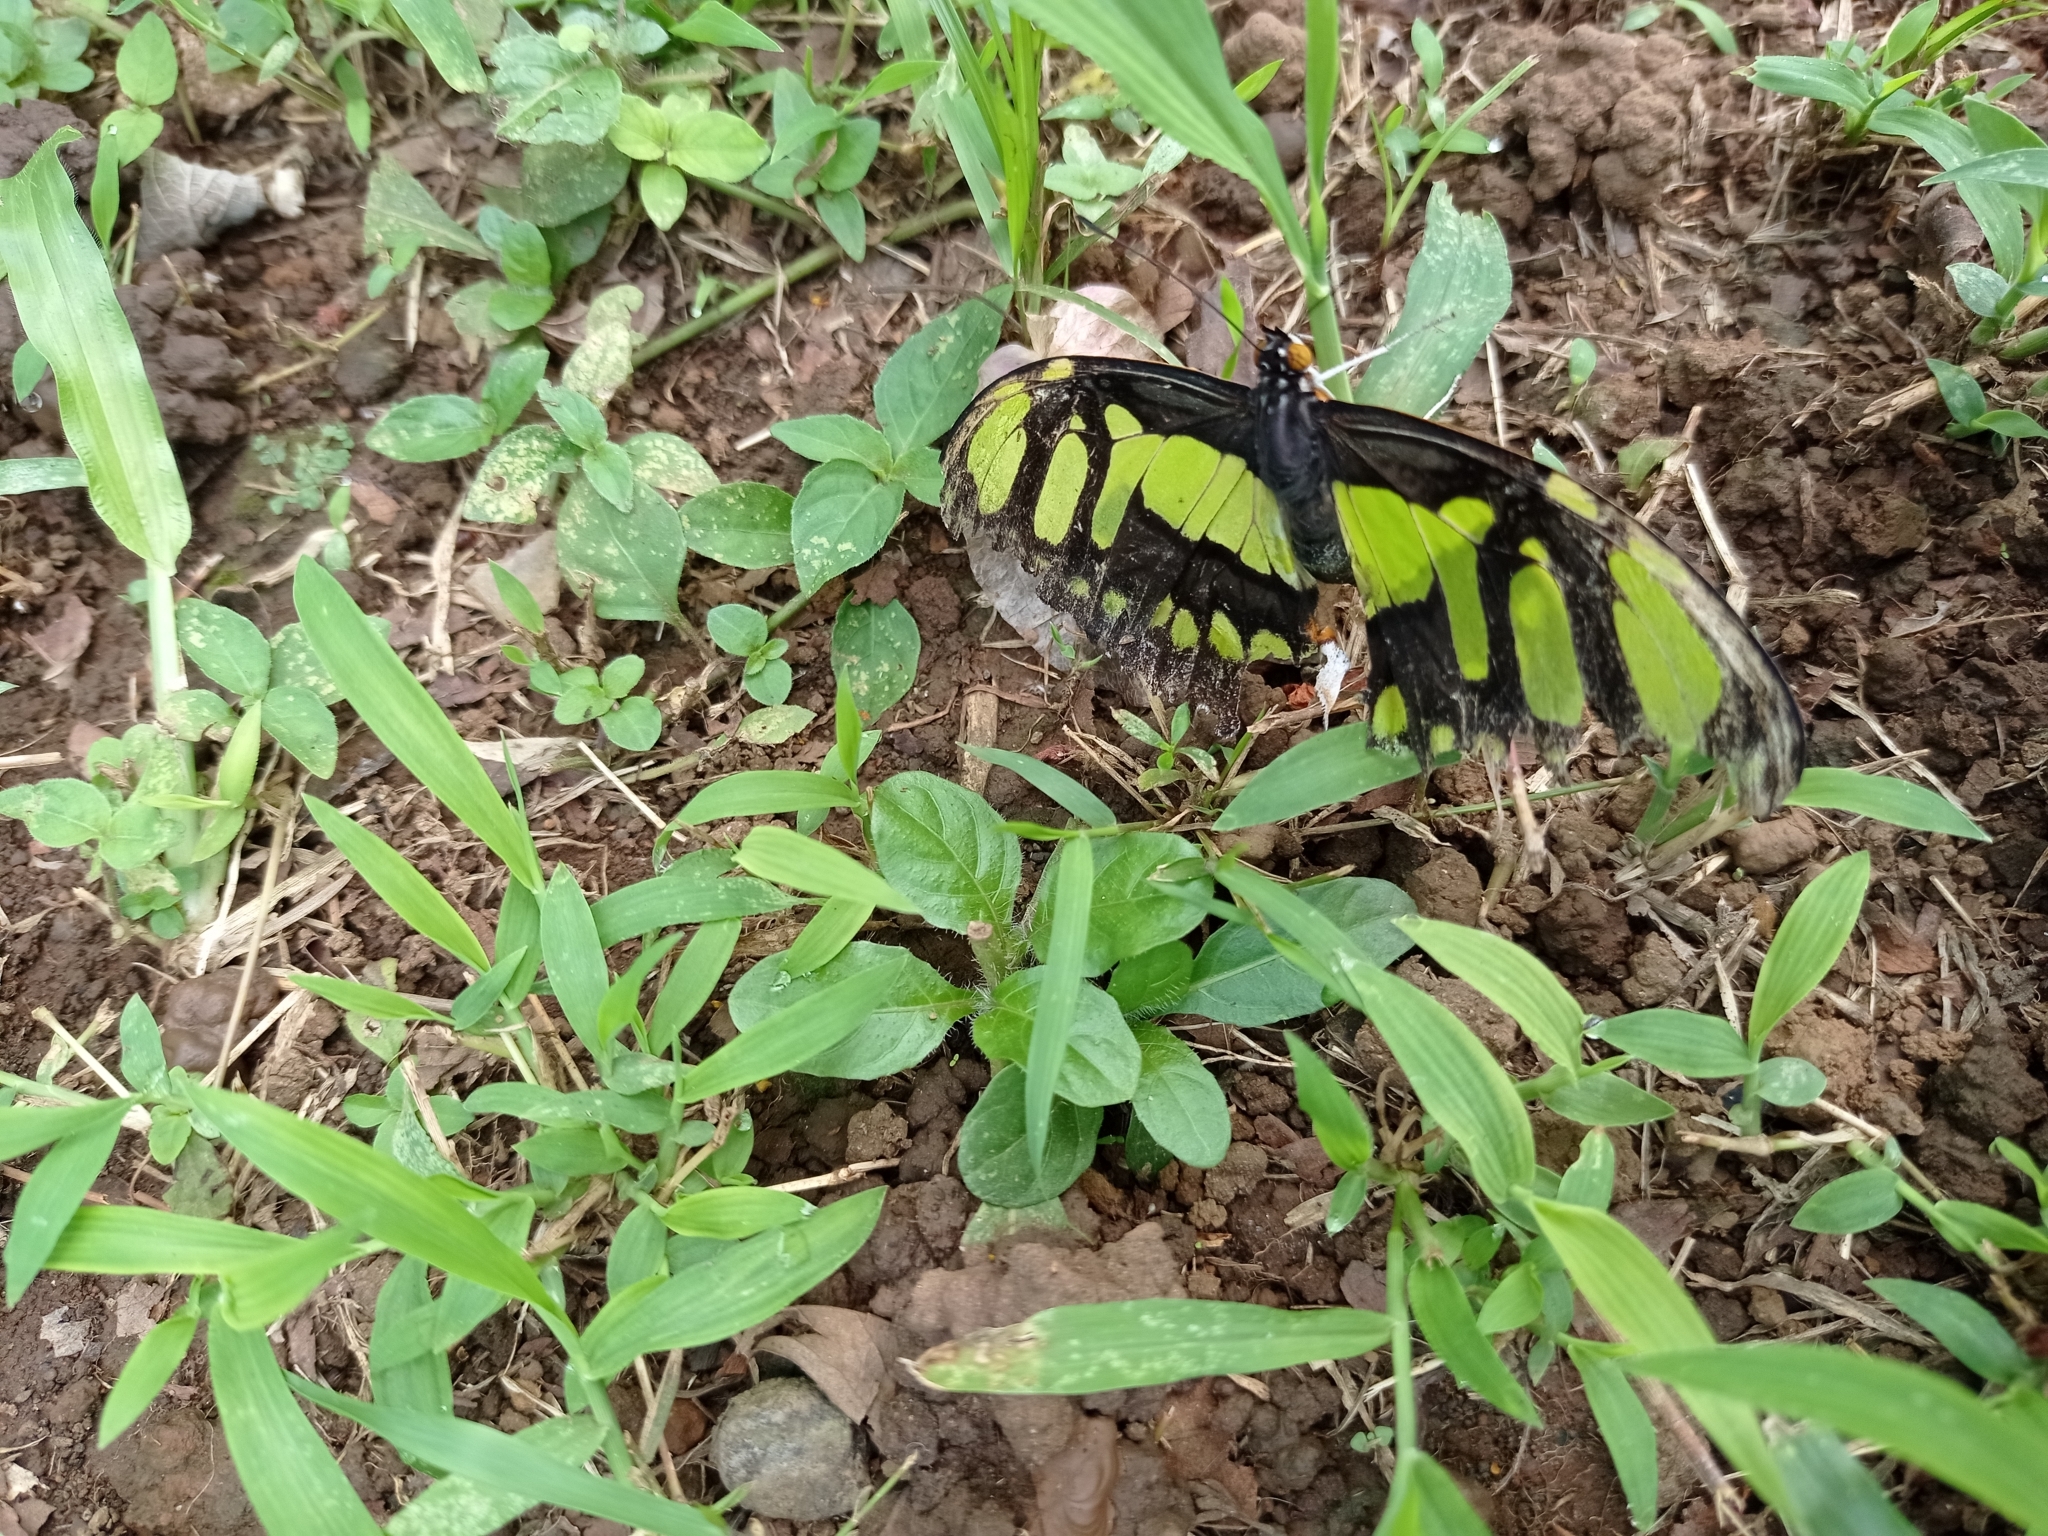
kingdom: Animalia
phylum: Arthropoda
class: Insecta
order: Lepidoptera
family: Nymphalidae
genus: Siproeta
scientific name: Siproeta stelenes
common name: Malachite
